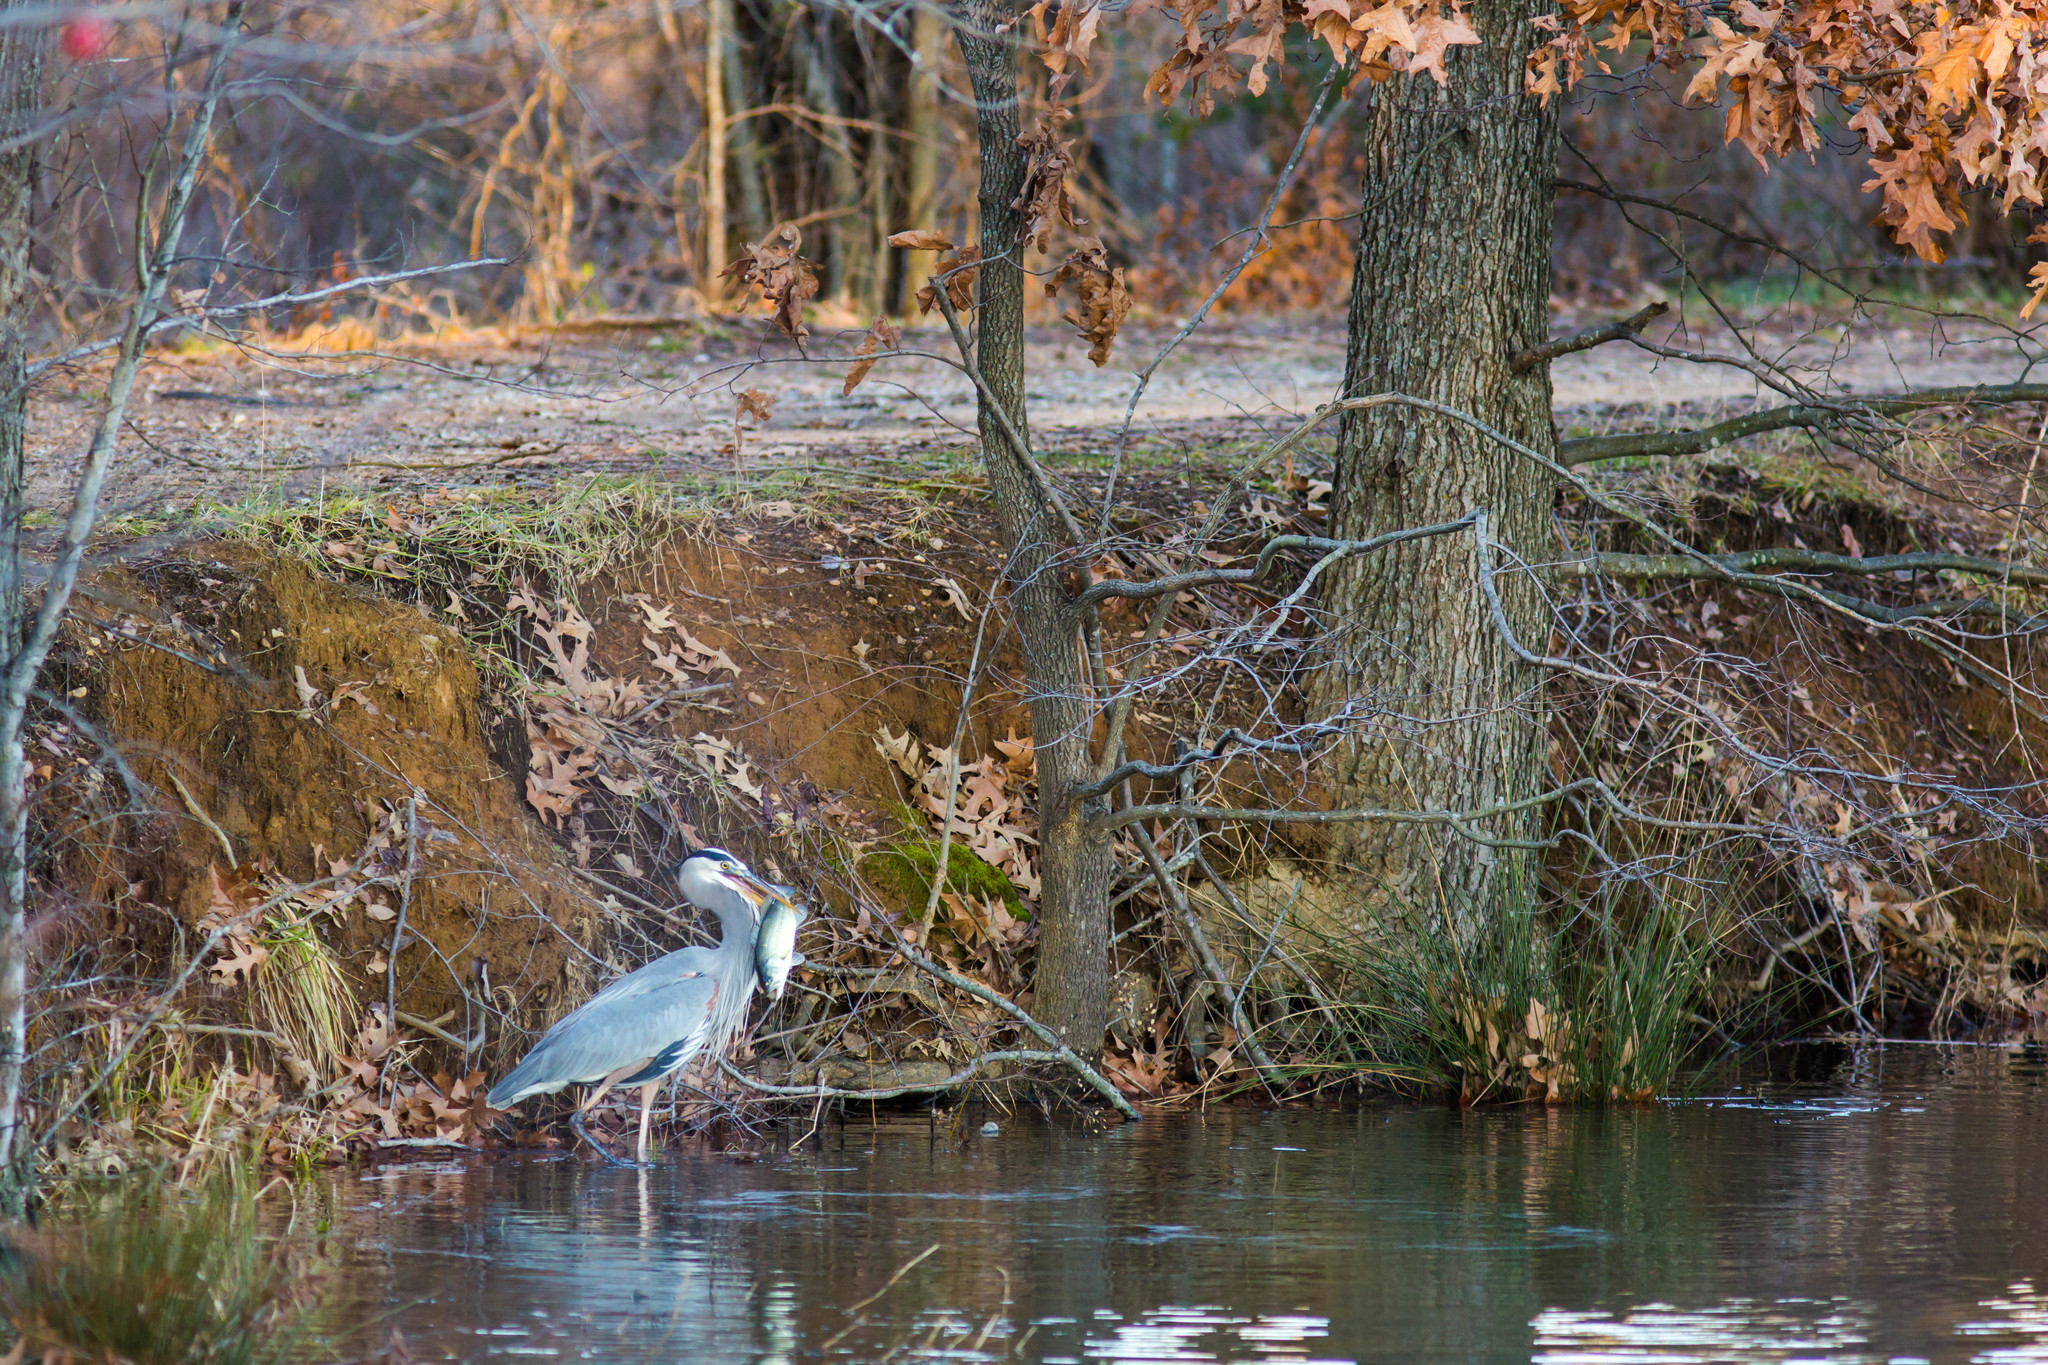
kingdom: Animalia
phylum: Chordata
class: Aves
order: Pelecaniformes
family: Ardeidae
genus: Ardea
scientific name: Ardea herodias
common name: Great blue heron
